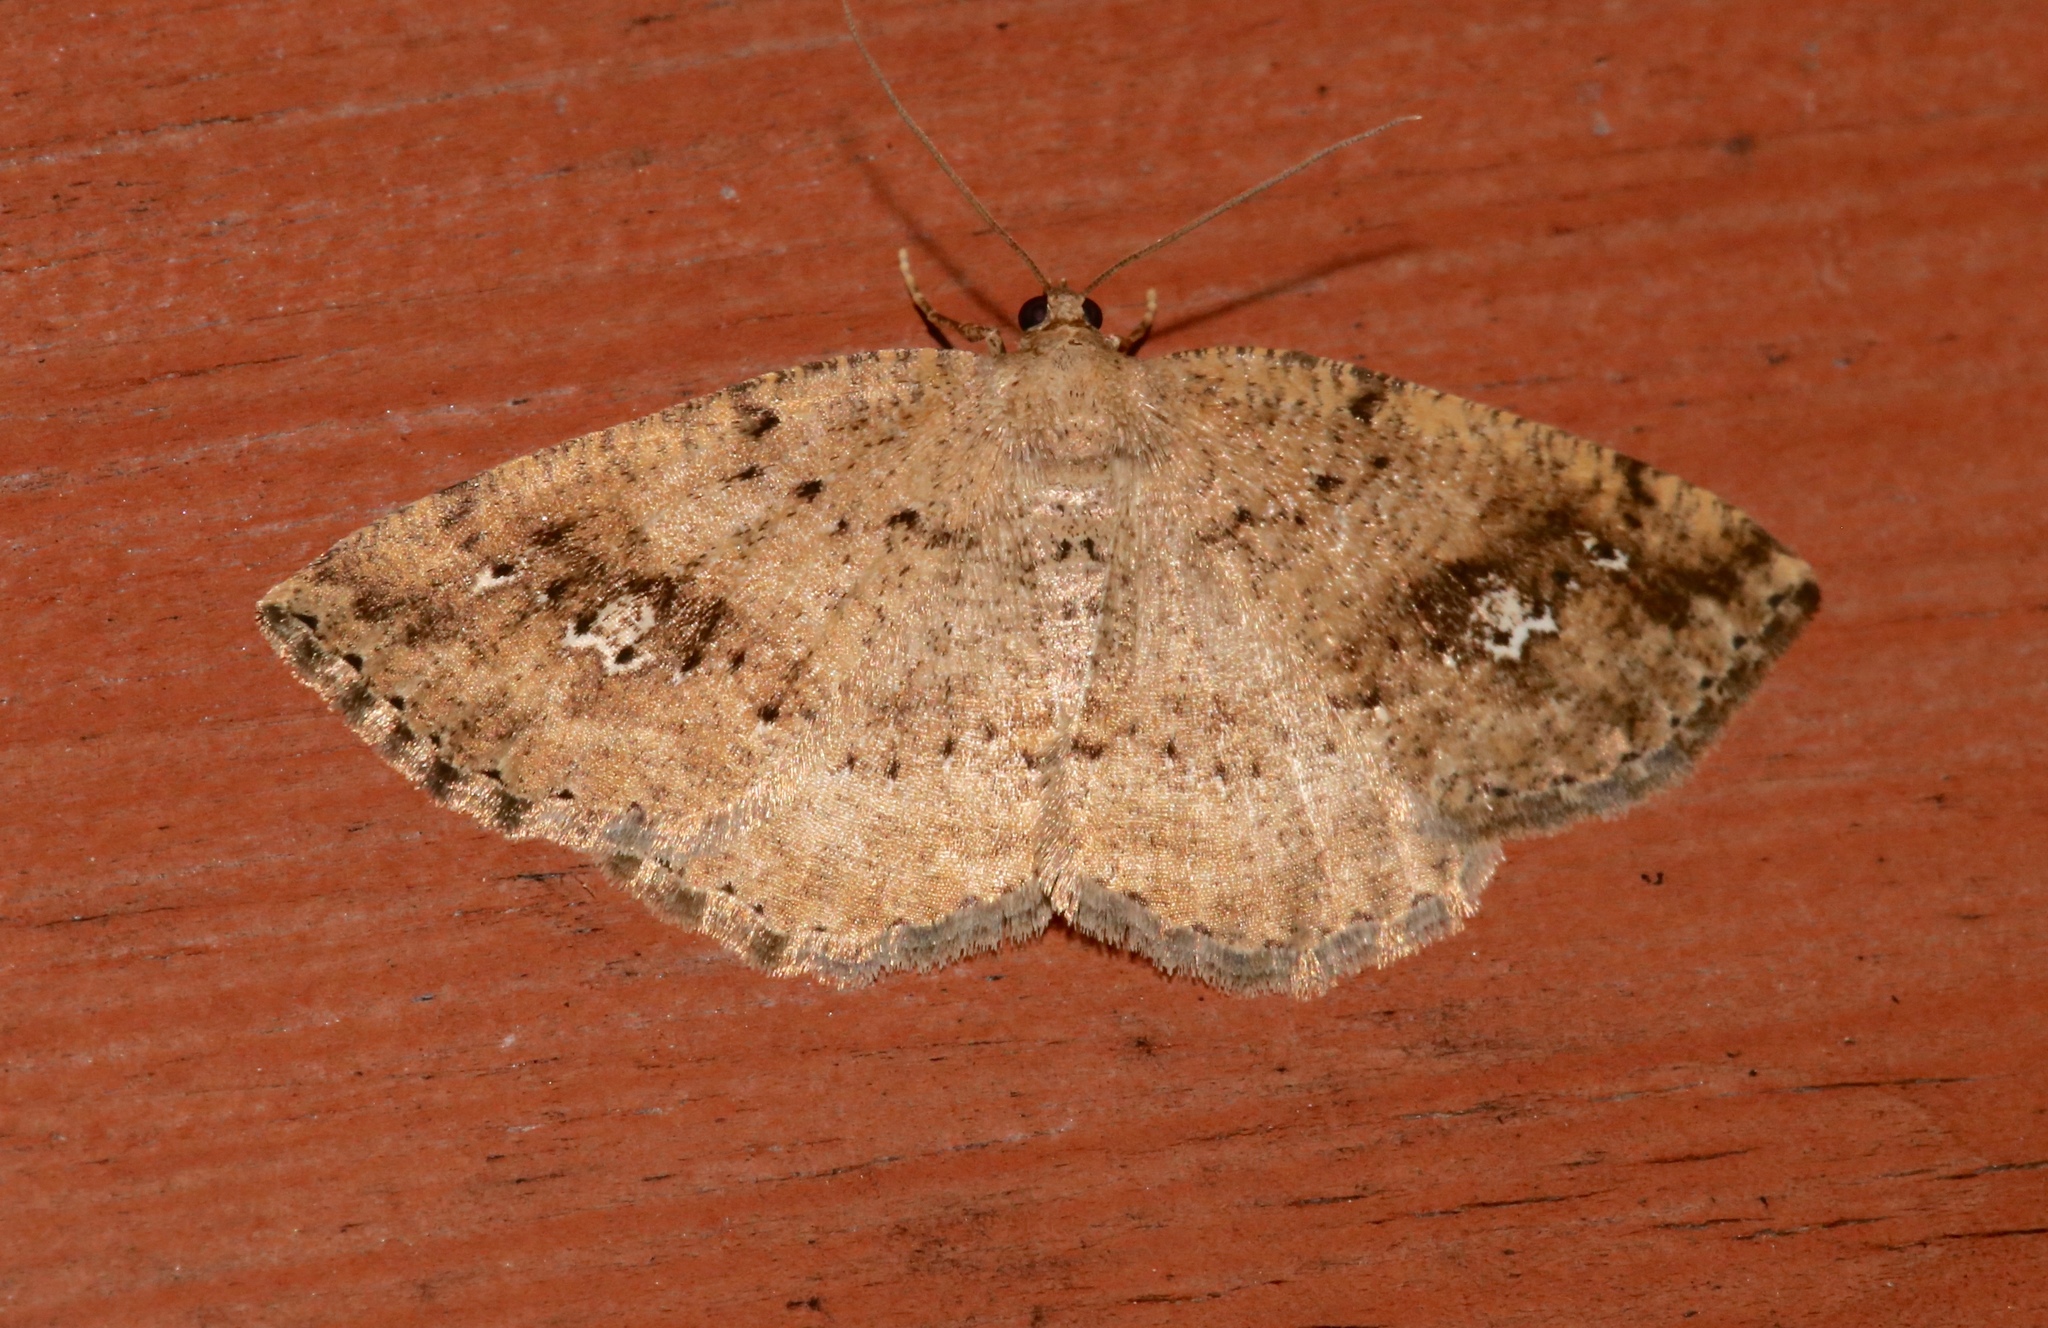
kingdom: Animalia
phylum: Arthropoda
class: Insecta
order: Lepidoptera
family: Geometridae
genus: Homochlodes
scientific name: Homochlodes fritillaria
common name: Pale homochlodes
